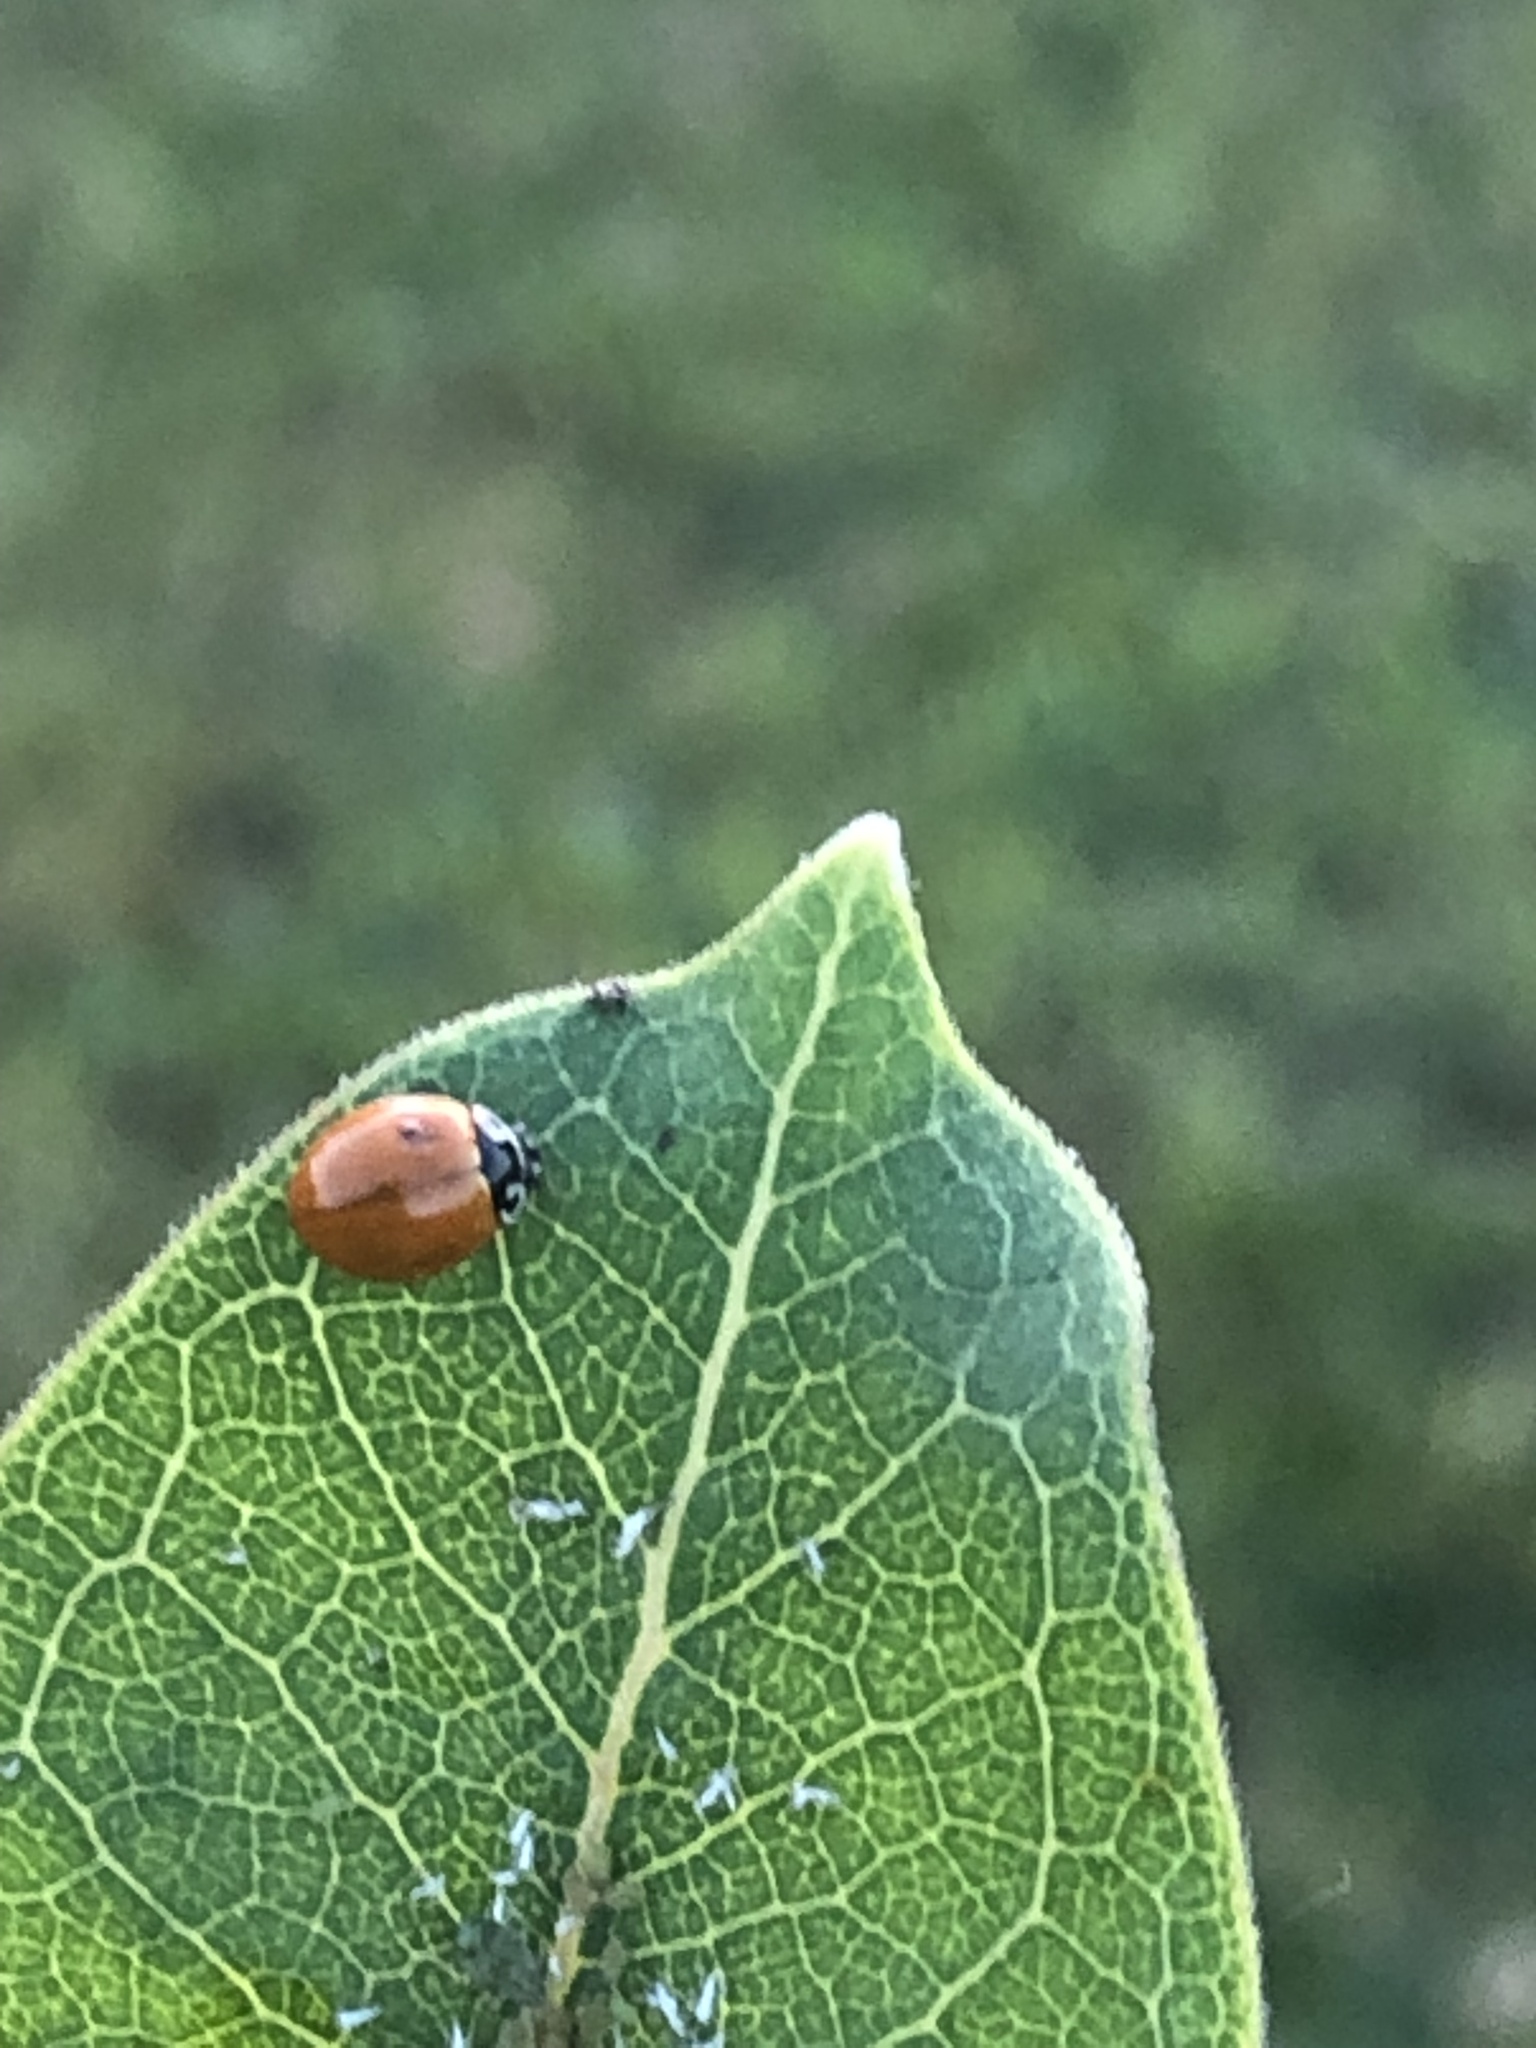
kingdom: Animalia
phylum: Arthropoda
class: Insecta
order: Coleoptera
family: Coccinellidae
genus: Cycloneda
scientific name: Cycloneda munda
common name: Polished lady beetle
